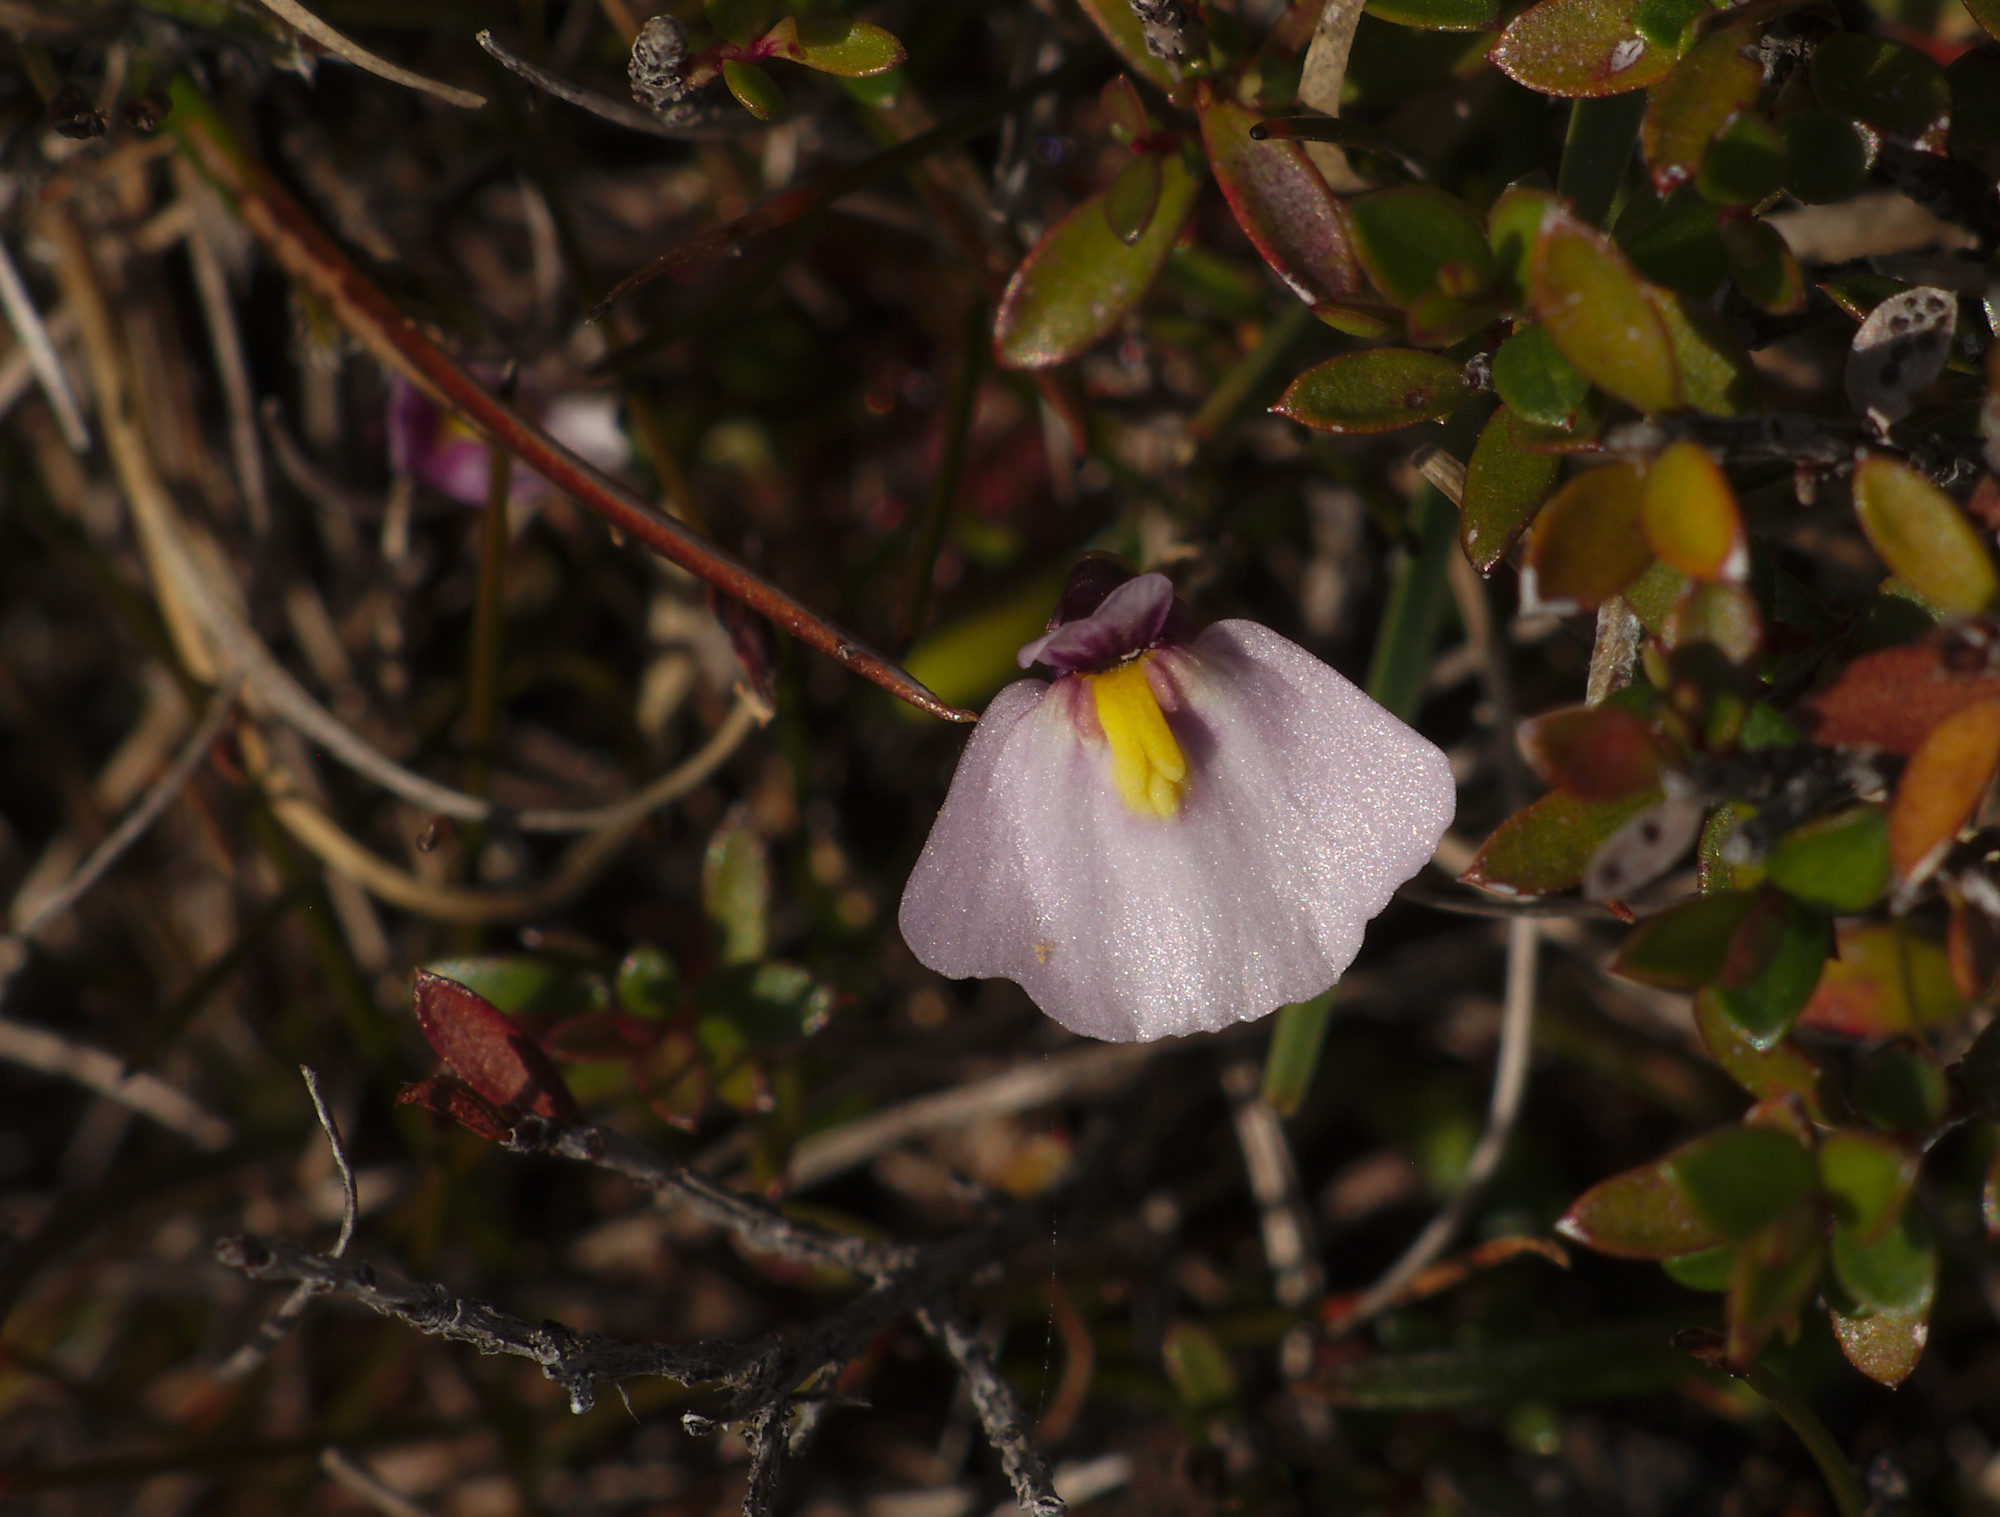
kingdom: Plantae
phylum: Tracheophyta
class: Magnoliopsida
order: Lamiales
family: Lentibulariaceae
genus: Utricularia
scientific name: Utricularia dichotoma
